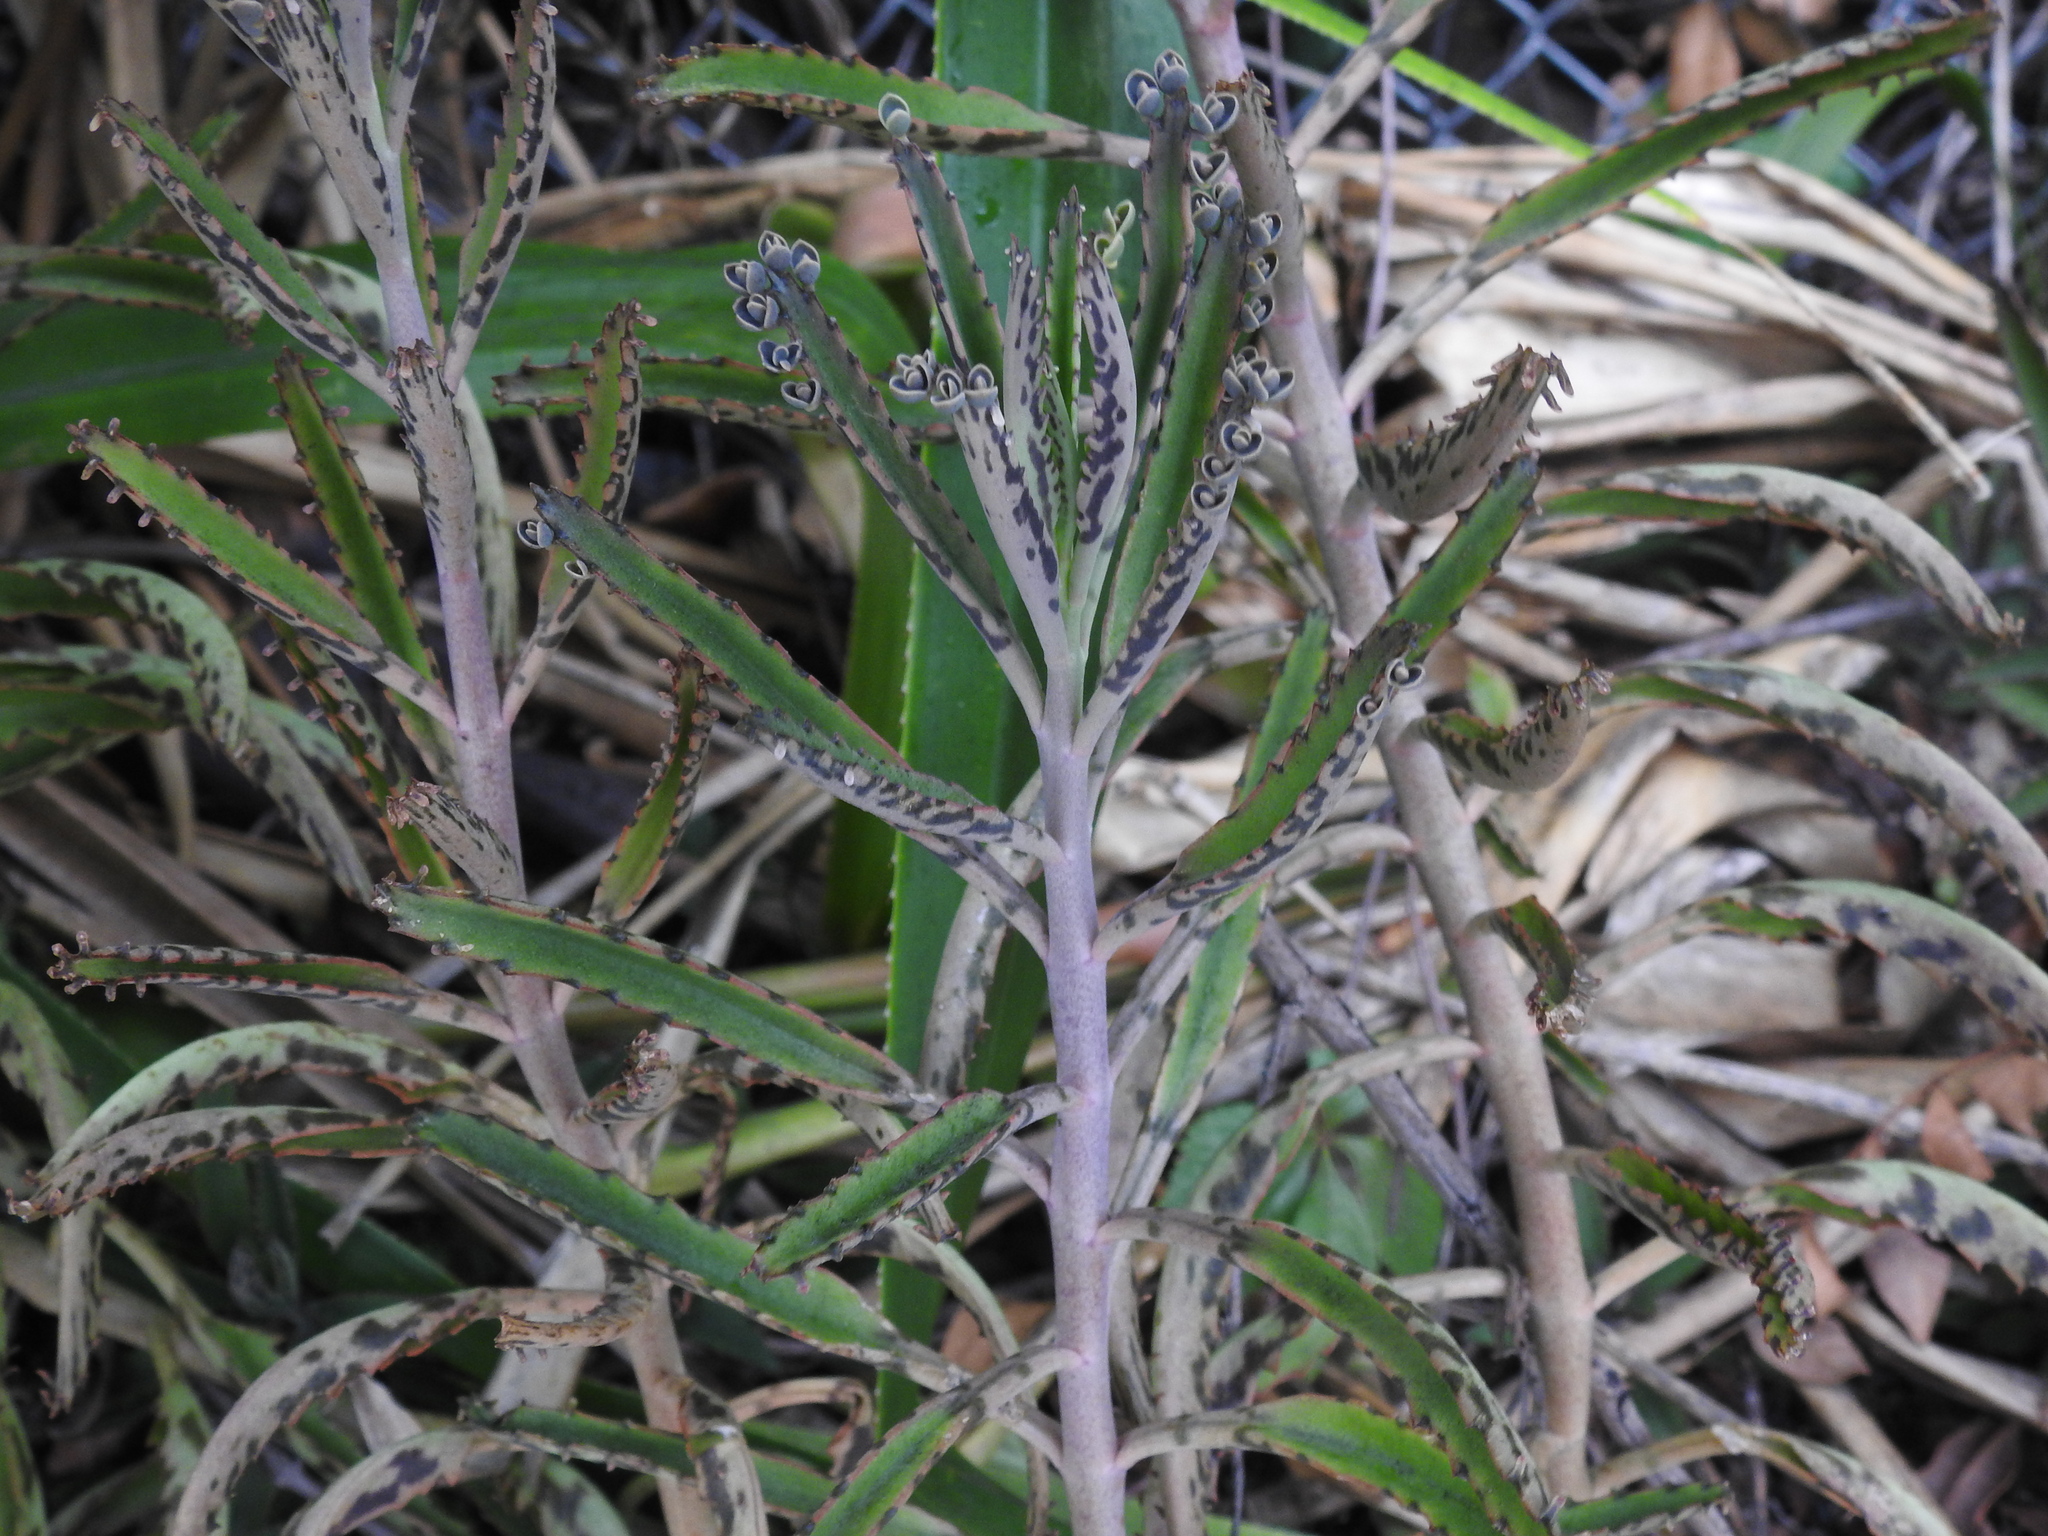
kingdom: Plantae
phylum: Tracheophyta
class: Magnoliopsida
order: Saxifragales
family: Crassulaceae
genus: Kalanchoe
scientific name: Kalanchoe houghtonii
